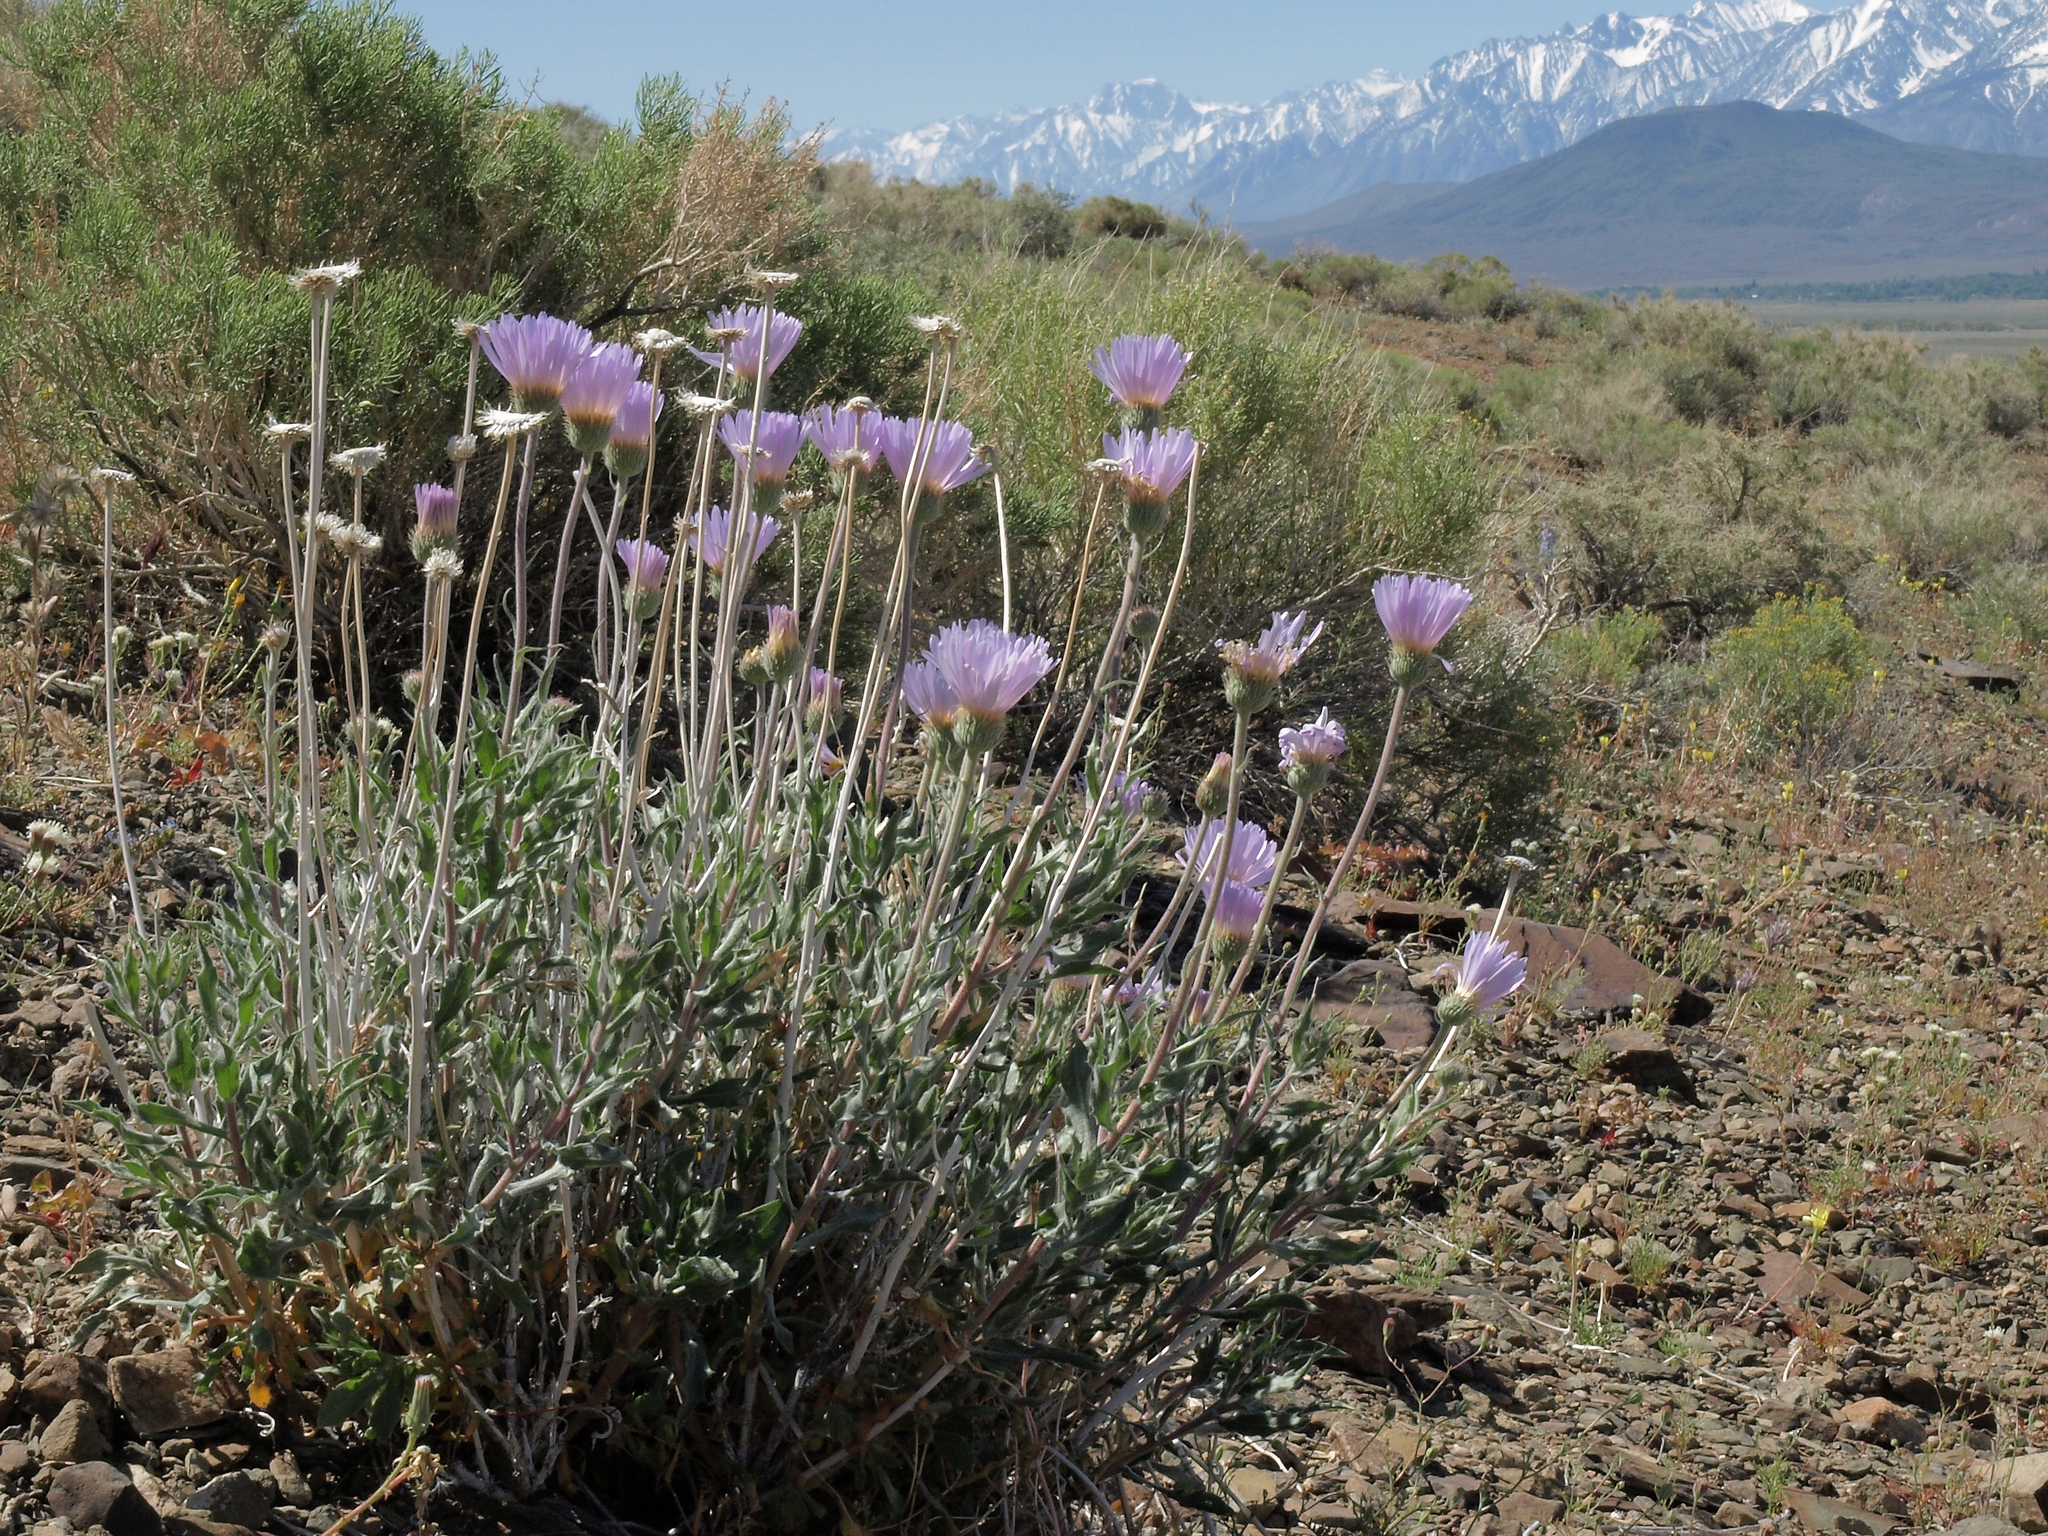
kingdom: Plantae
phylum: Tracheophyta
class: Magnoliopsida
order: Asterales
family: Asteraceae
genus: Xylorhiza
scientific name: Xylorhiza tortifolia
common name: Hurt-leaf woody-aster
